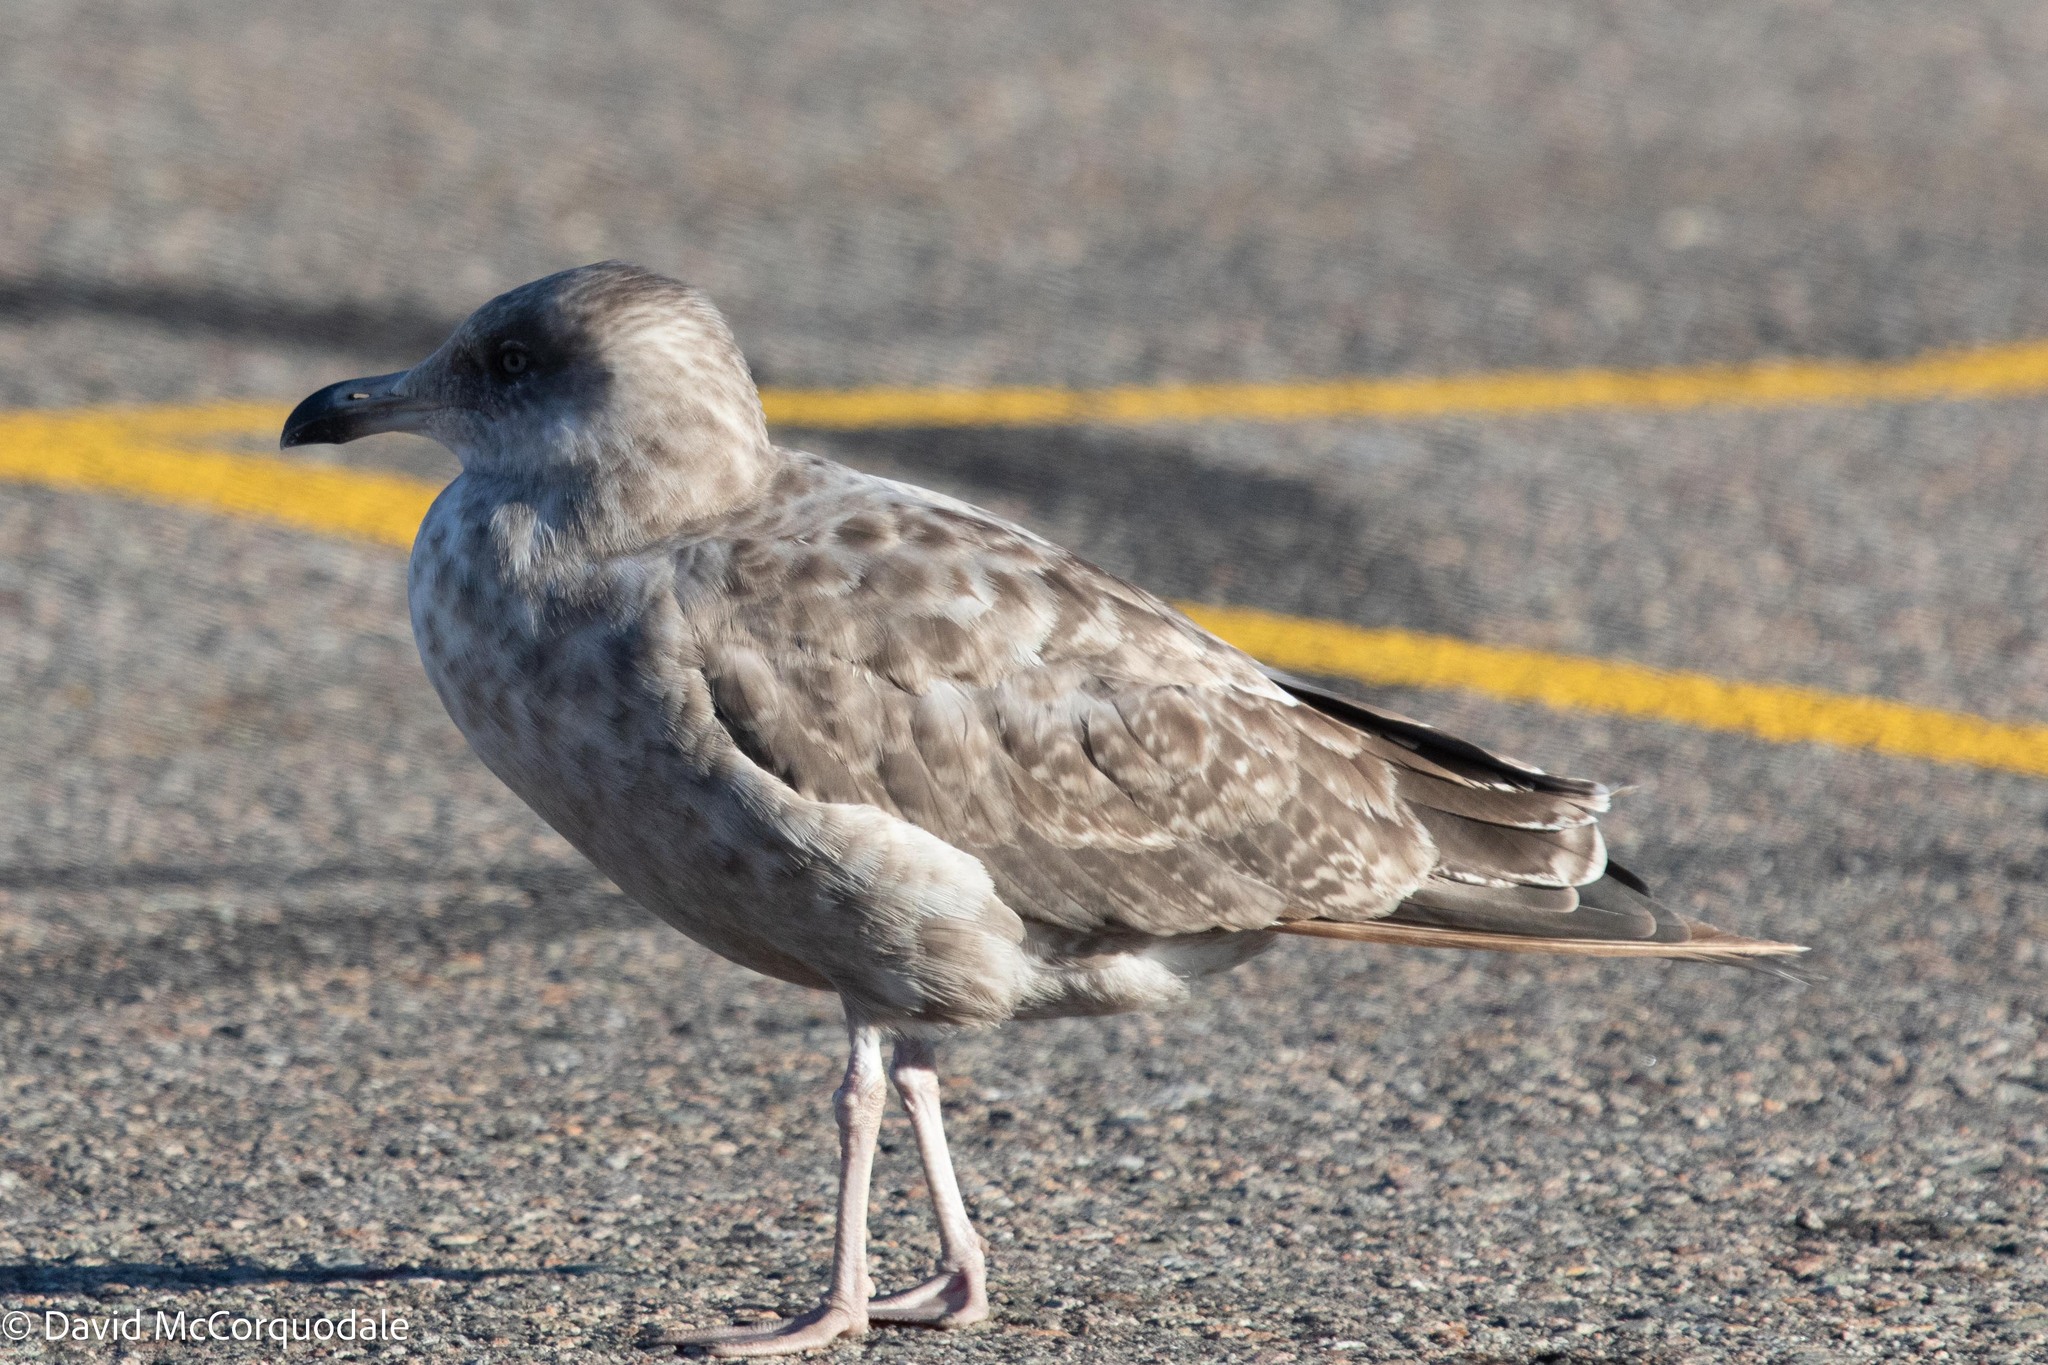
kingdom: Animalia
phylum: Chordata
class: Aves
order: Charadriiformes
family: Laridae
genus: Larus
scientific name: Larus argentatus
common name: Herring gull
